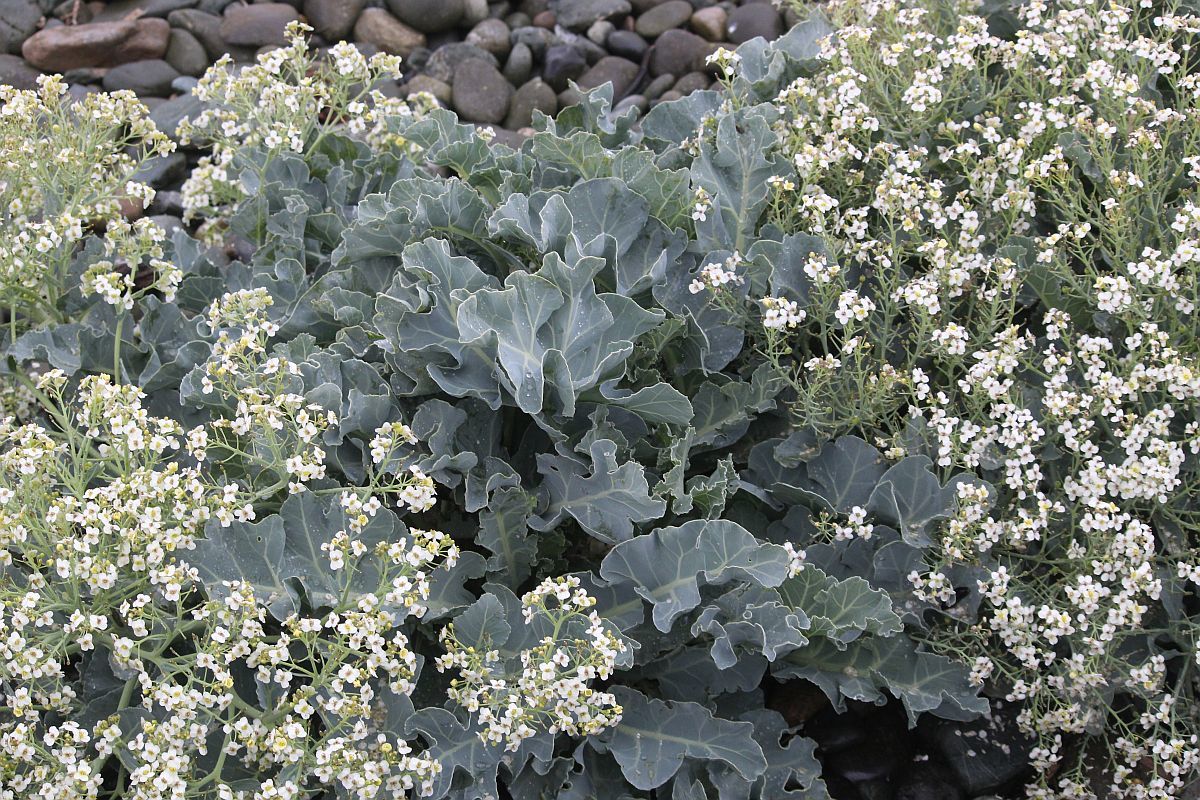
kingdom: Plantae
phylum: Tracheophyta
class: Magnoliopsida
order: Brassicales
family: Brassicaceae
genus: Crambe
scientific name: Crambe maritima
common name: Sea-kale
